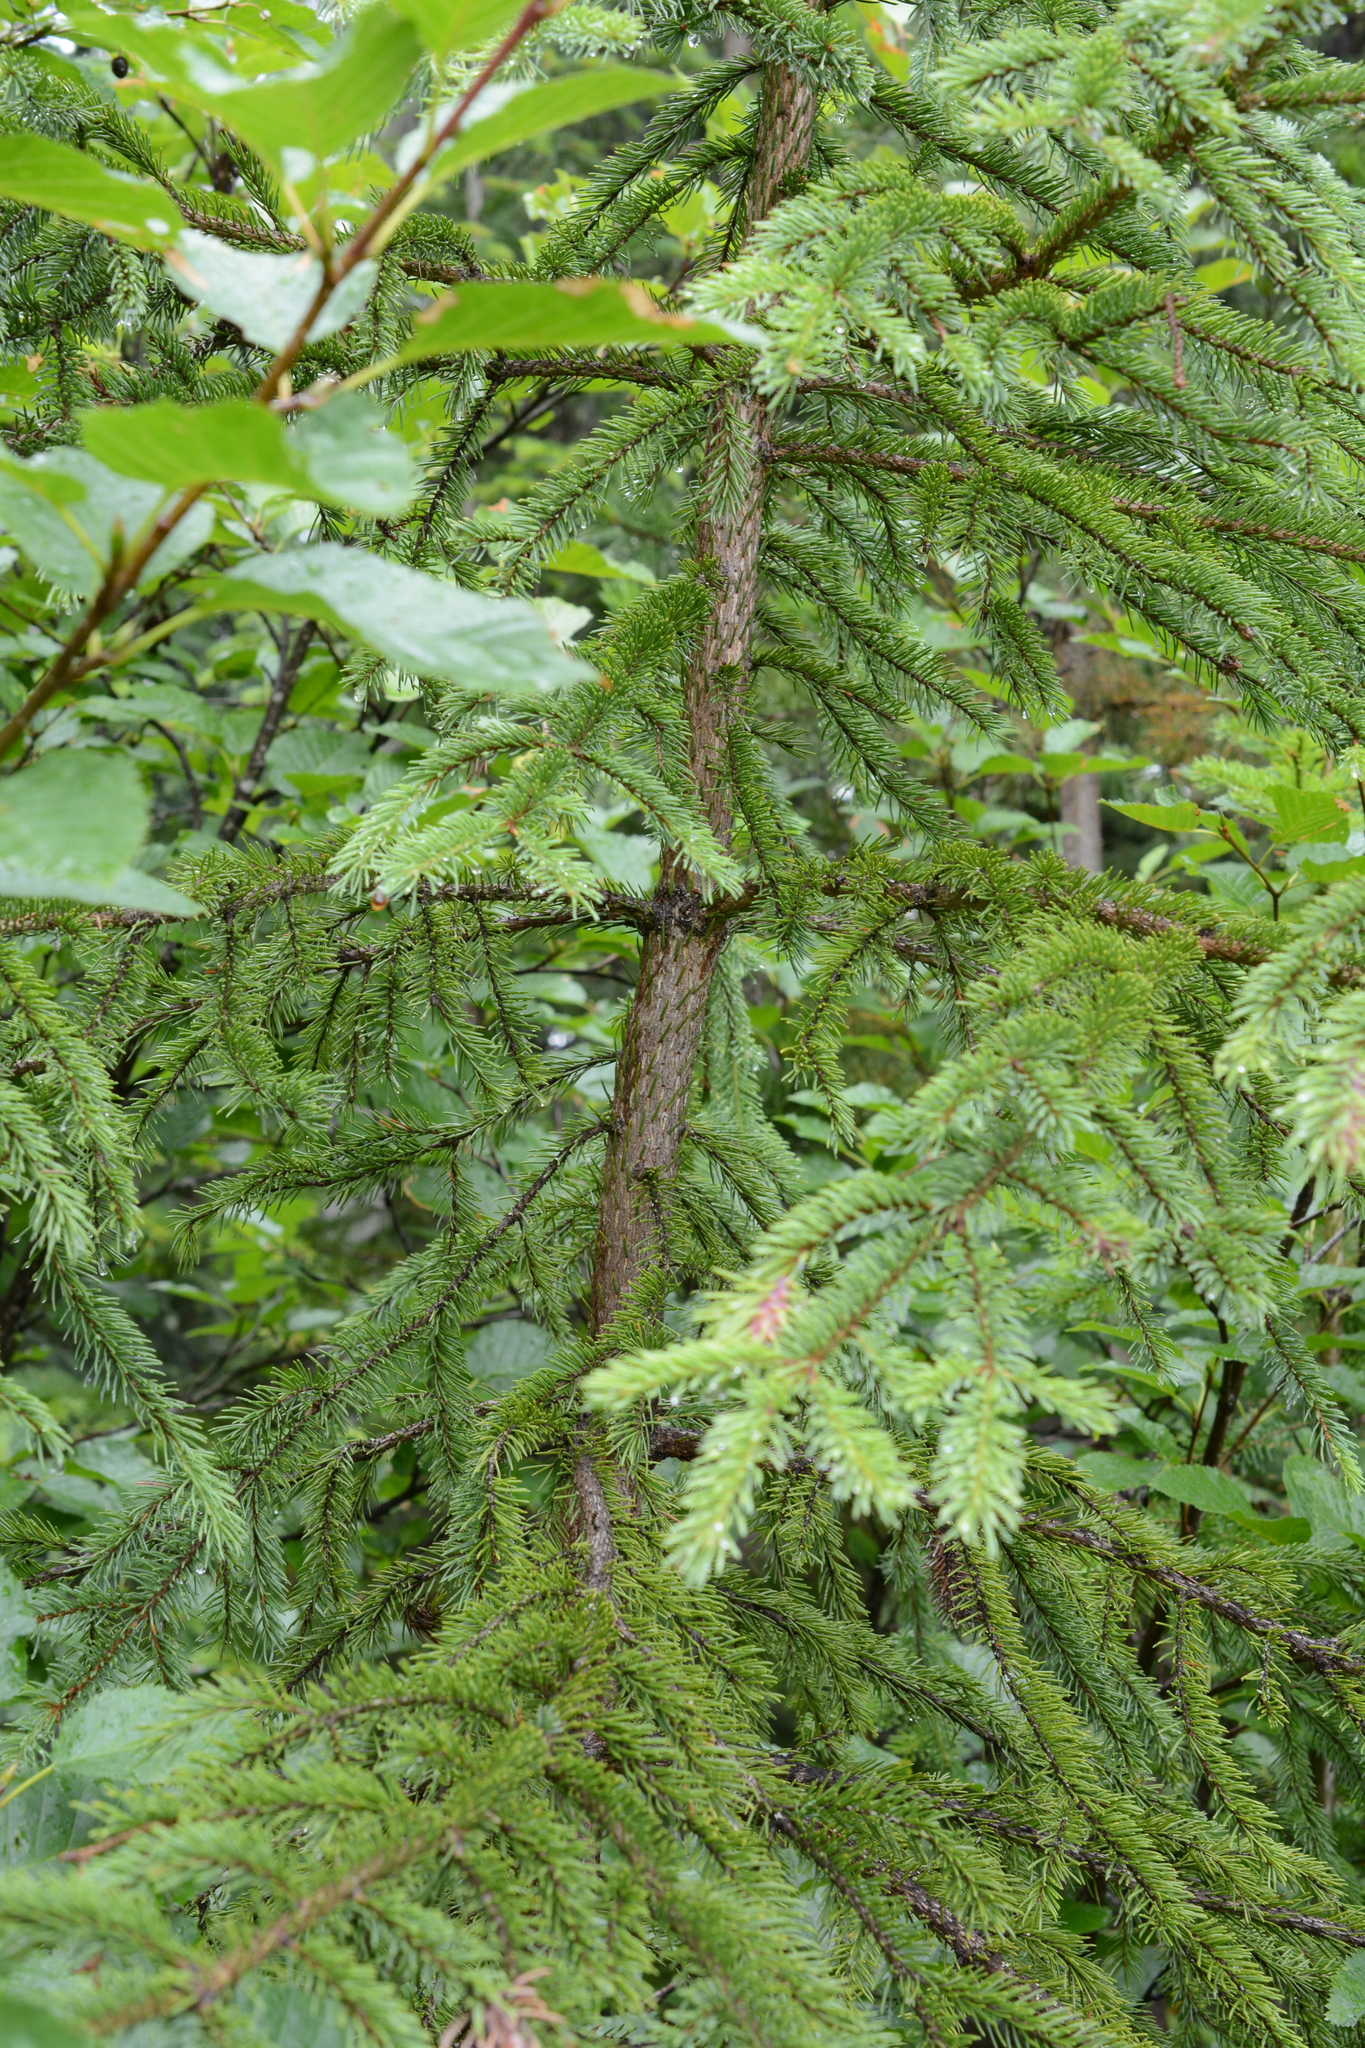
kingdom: Animalia
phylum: Arthropoda
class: Insecta
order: Hemiptera
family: Adelgidae
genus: Adelges
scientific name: Adelges cooleyi
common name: Cooley spruce gall adelgid
